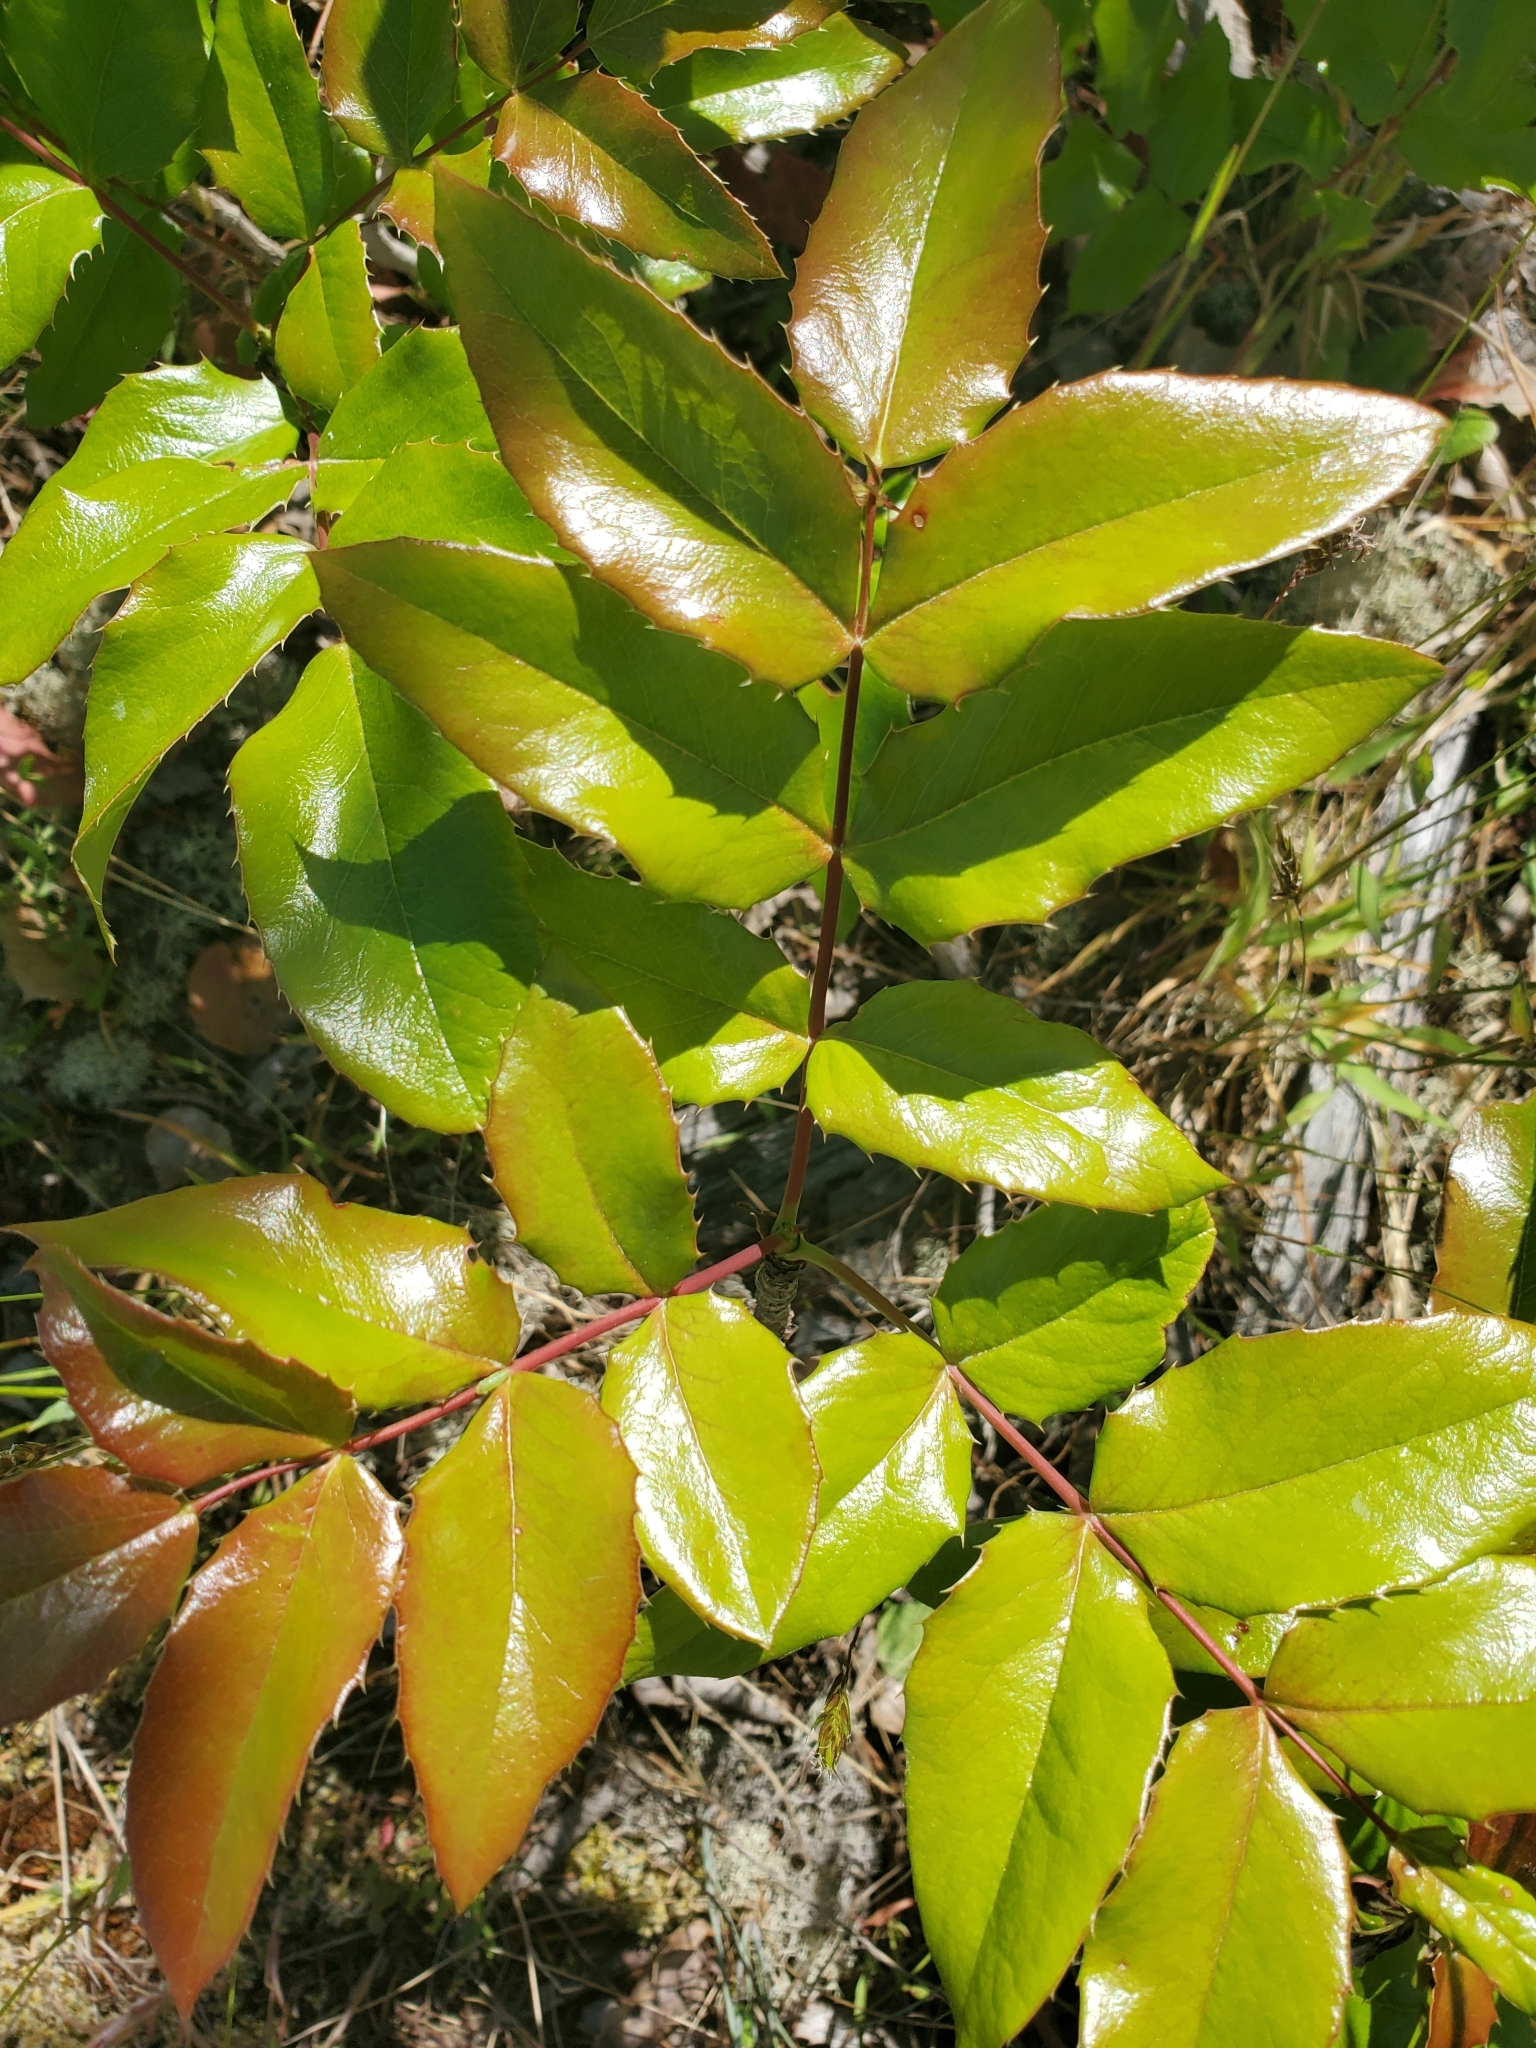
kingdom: Plantae
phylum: Tracheophyta
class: Magnoliopsida
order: Ranunculales
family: Berberidaceae
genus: Mahonia
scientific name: Mahonia aquifolium
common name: Oregon-grape
